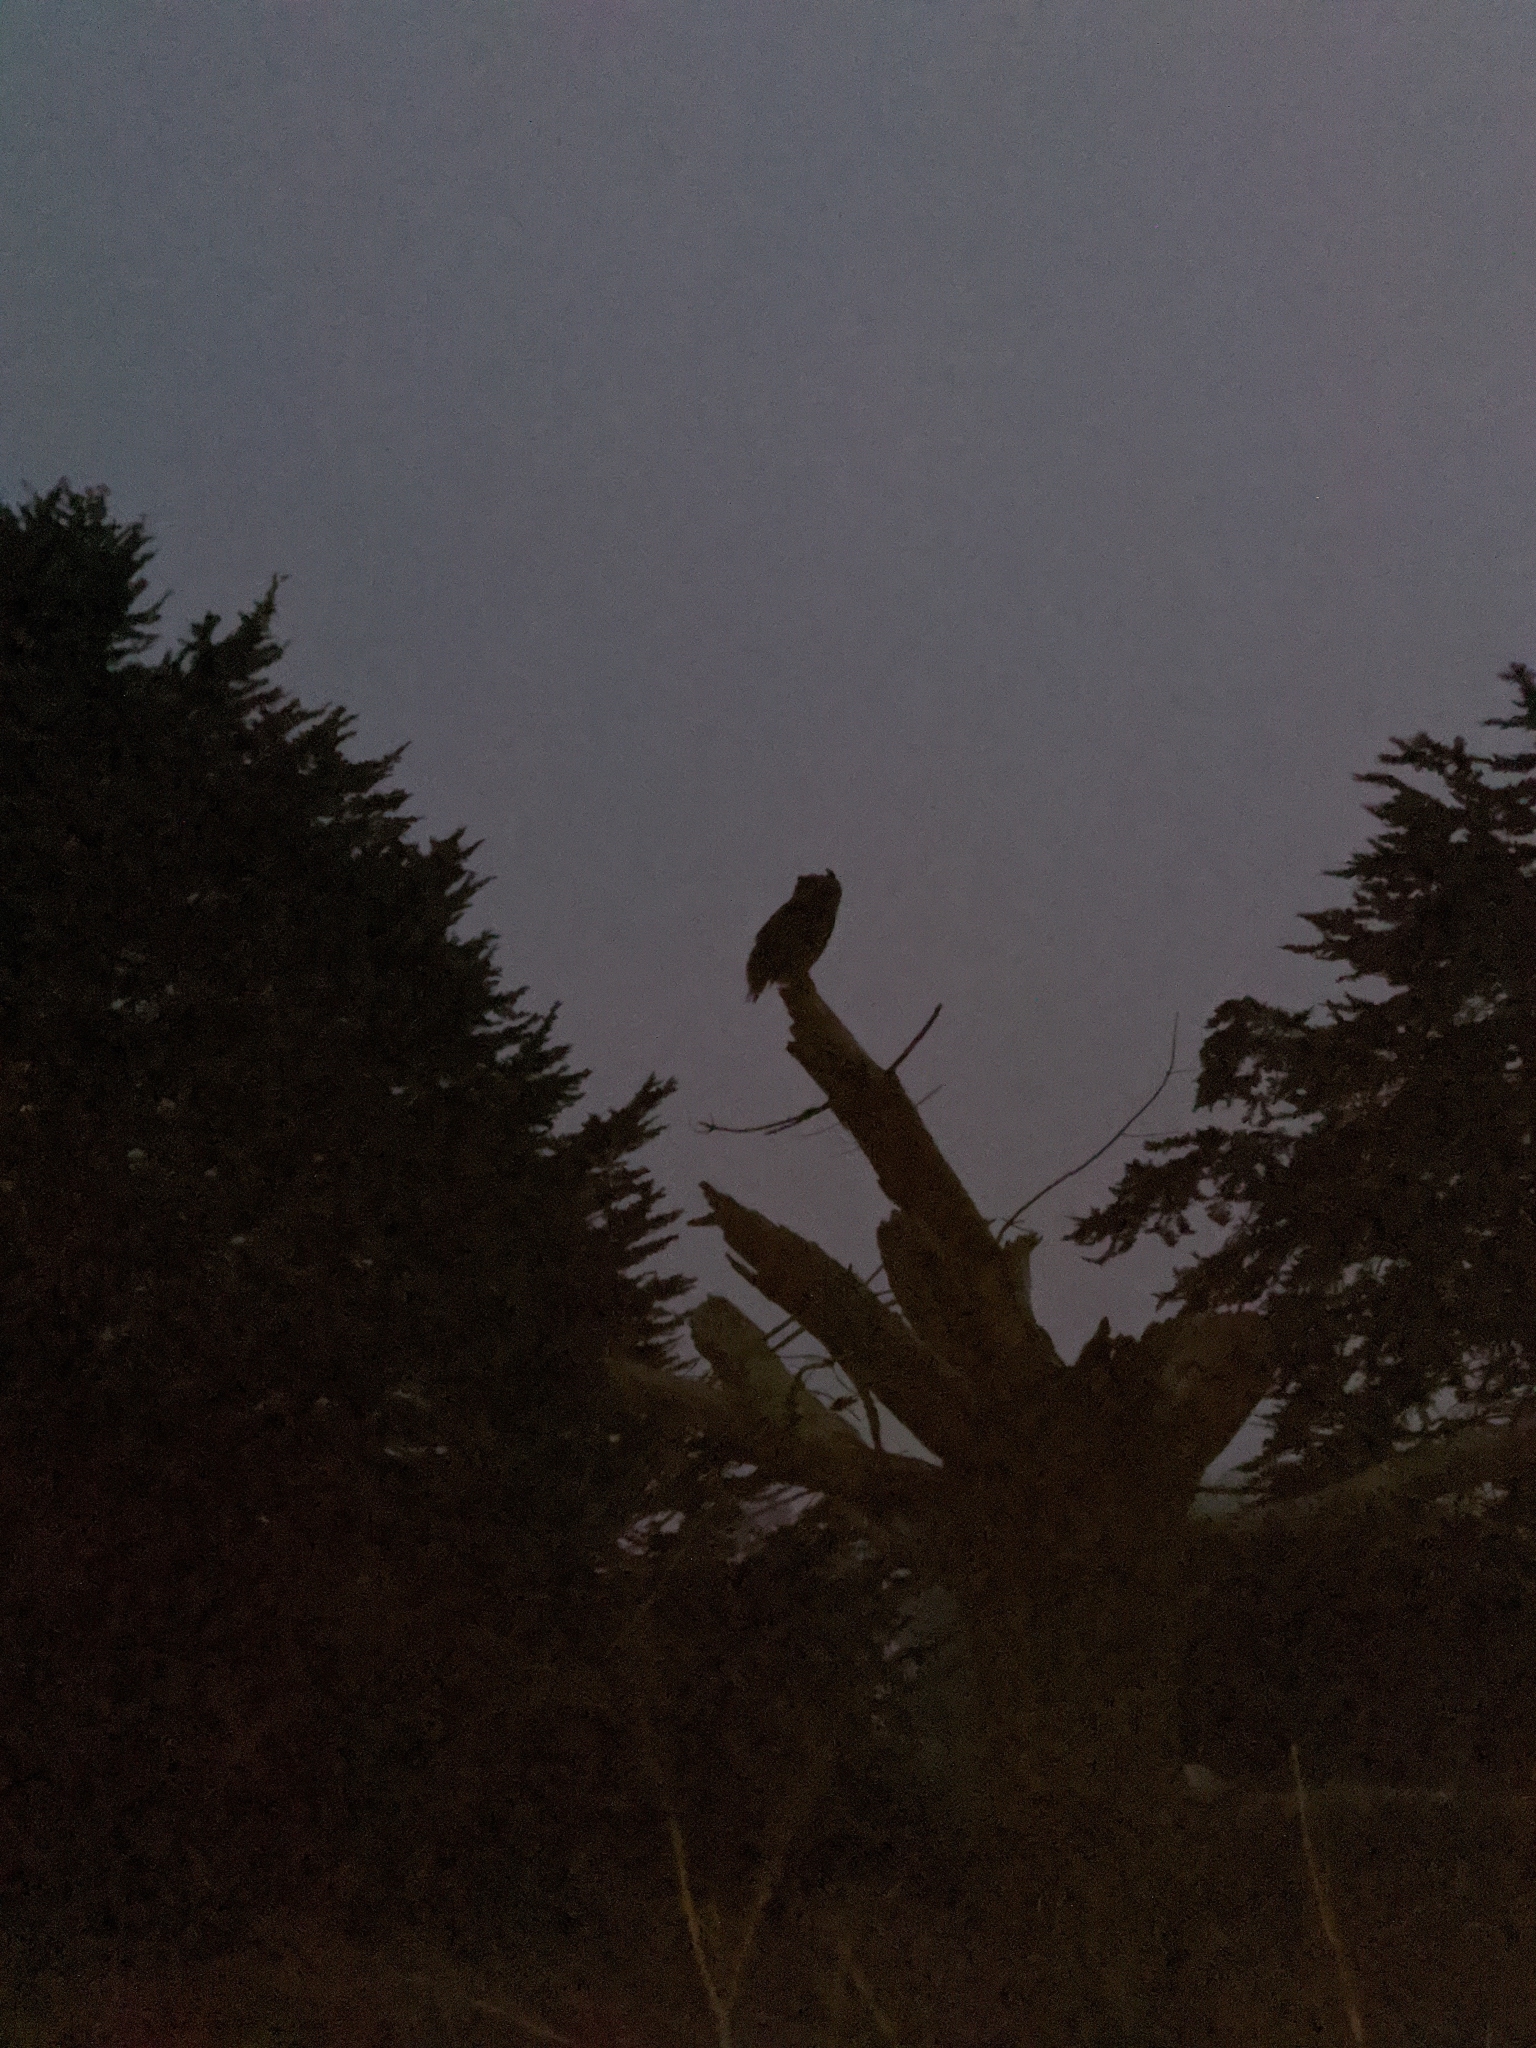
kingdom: Animalia
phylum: Chordata
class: Aves
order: Strigiformes
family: Strigidae
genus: Bubo
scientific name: Bubo virginianus
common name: Great horned owl
